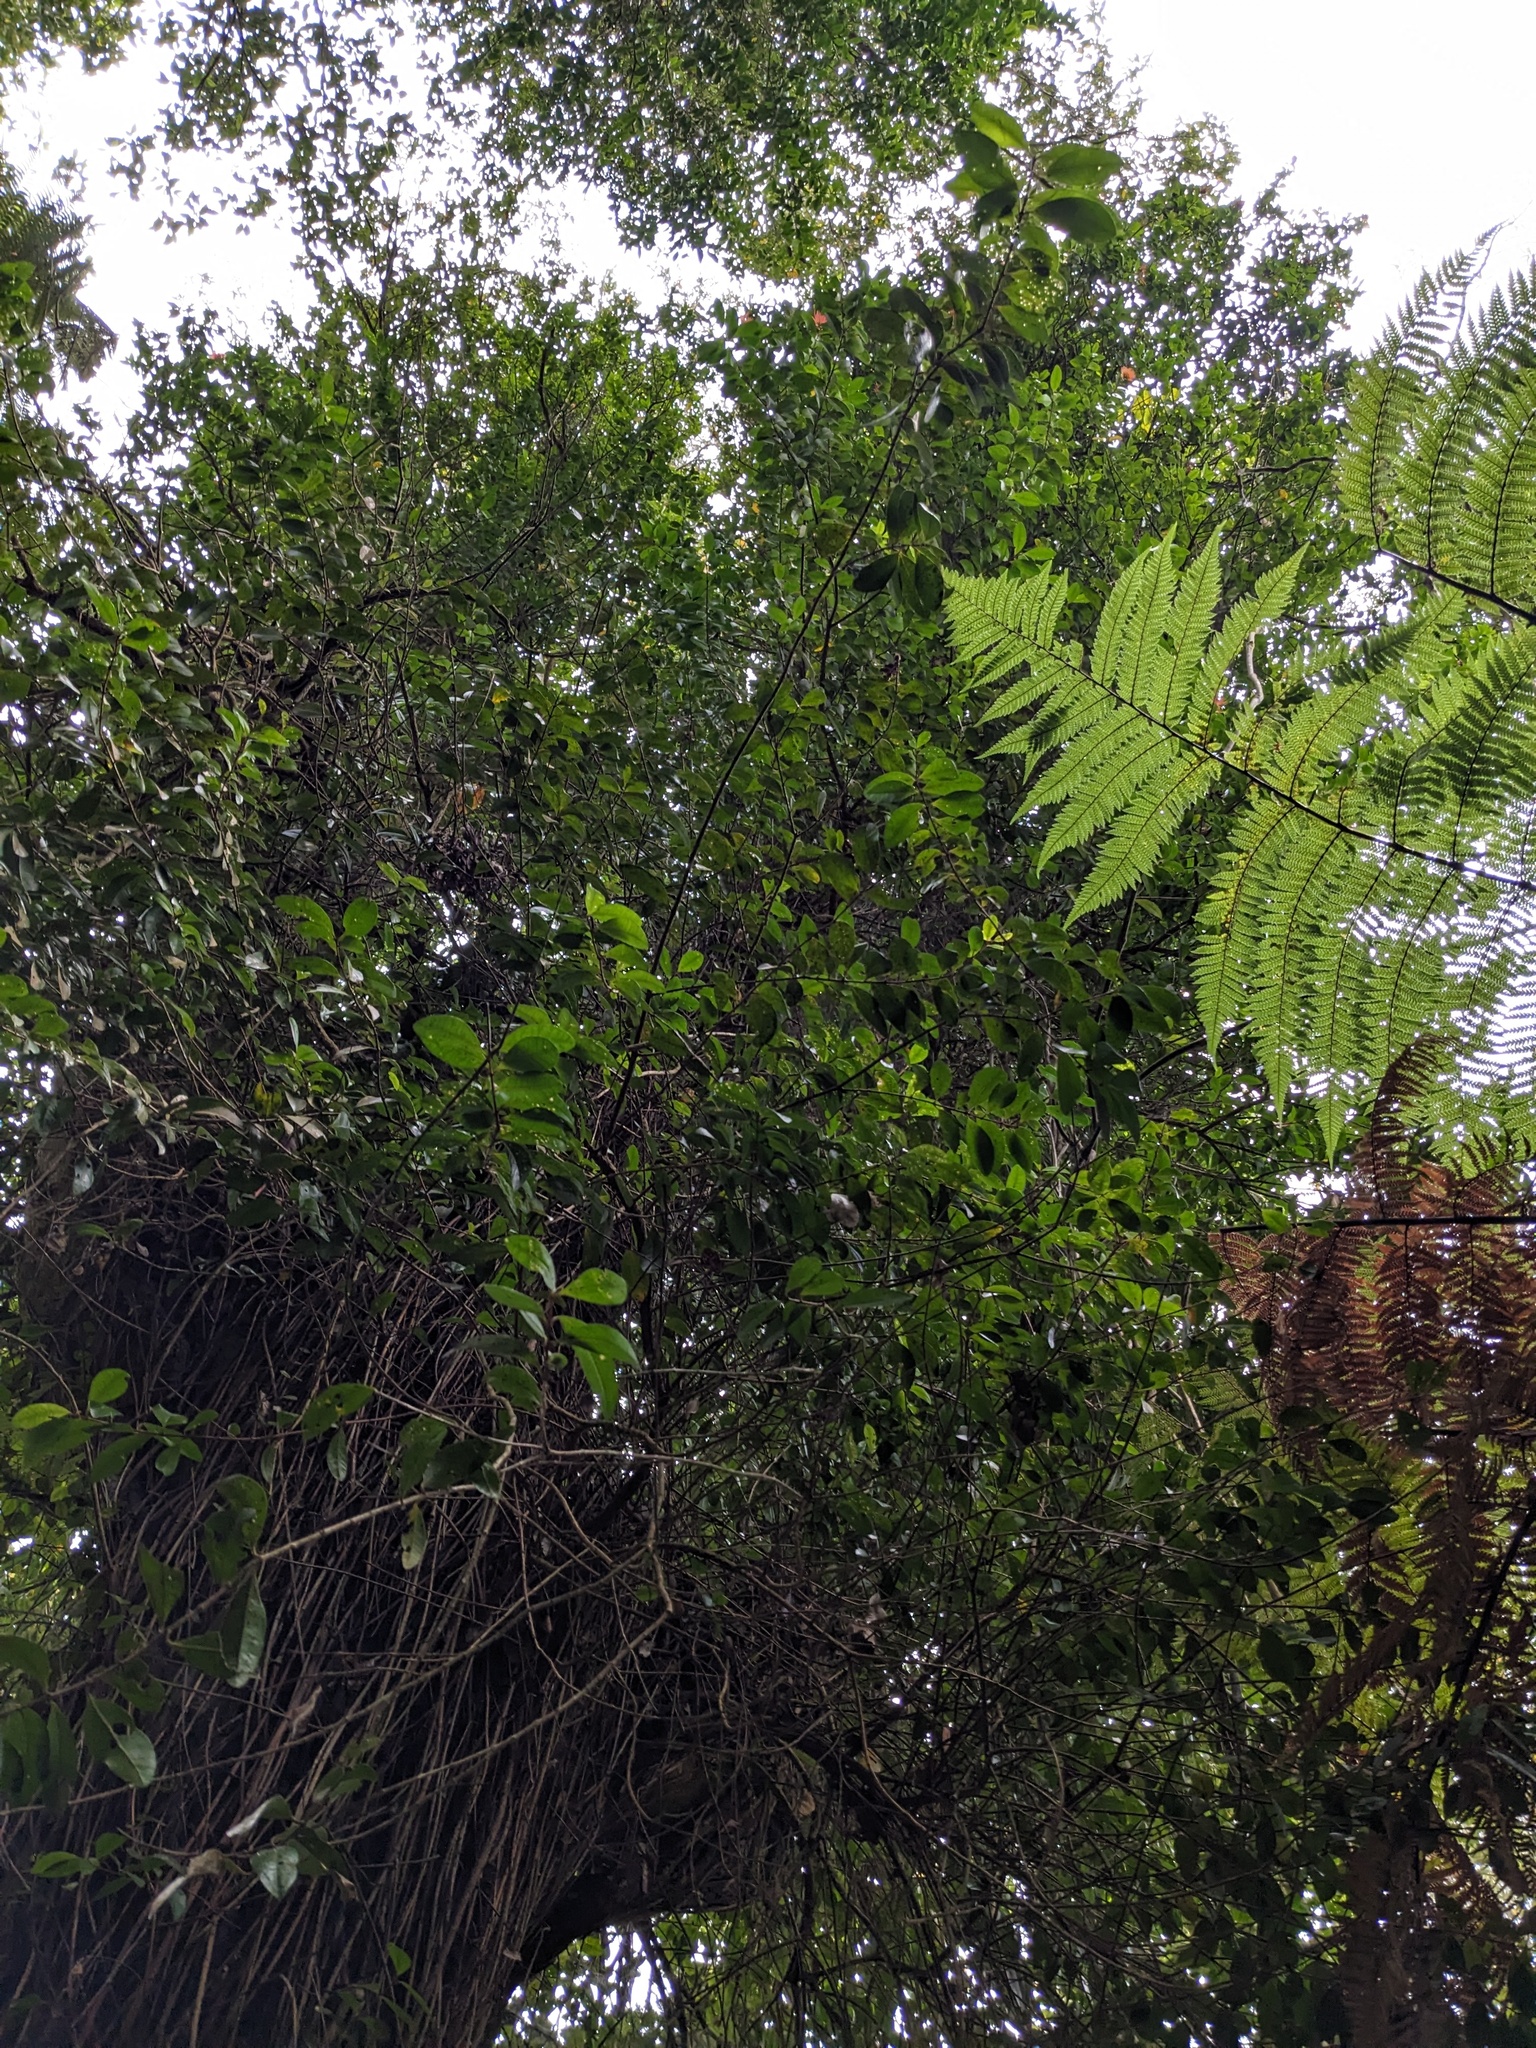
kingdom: Plantae
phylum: Tracheophyta
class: Magnoliopsida
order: Myrtales
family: Myrtaceae
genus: Metrosideros
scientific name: Metrosideros fulgens
